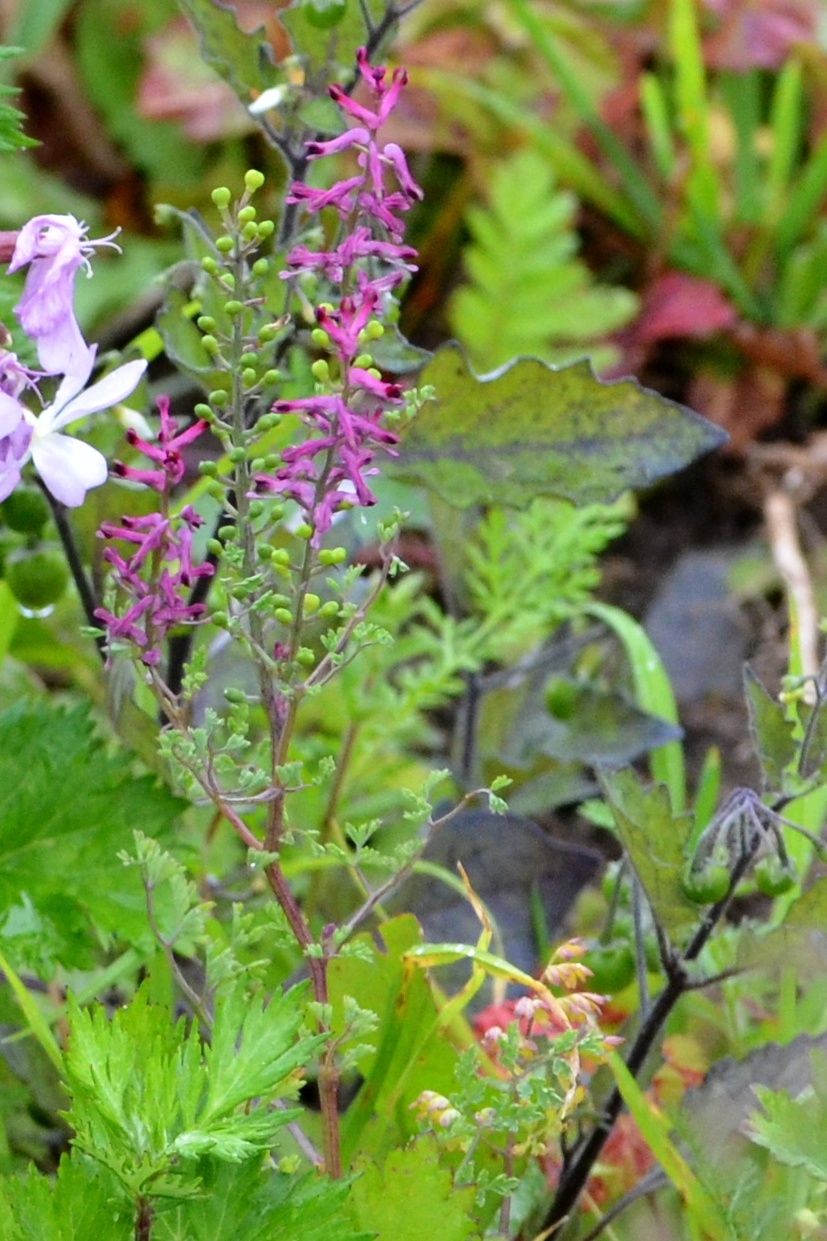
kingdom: Plantae
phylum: Tracheophyta
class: Magnoliopsida
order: Ranunculales
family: Papaveraceae
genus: Fumaria
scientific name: Fumaria officinalis
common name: Common fumitory
